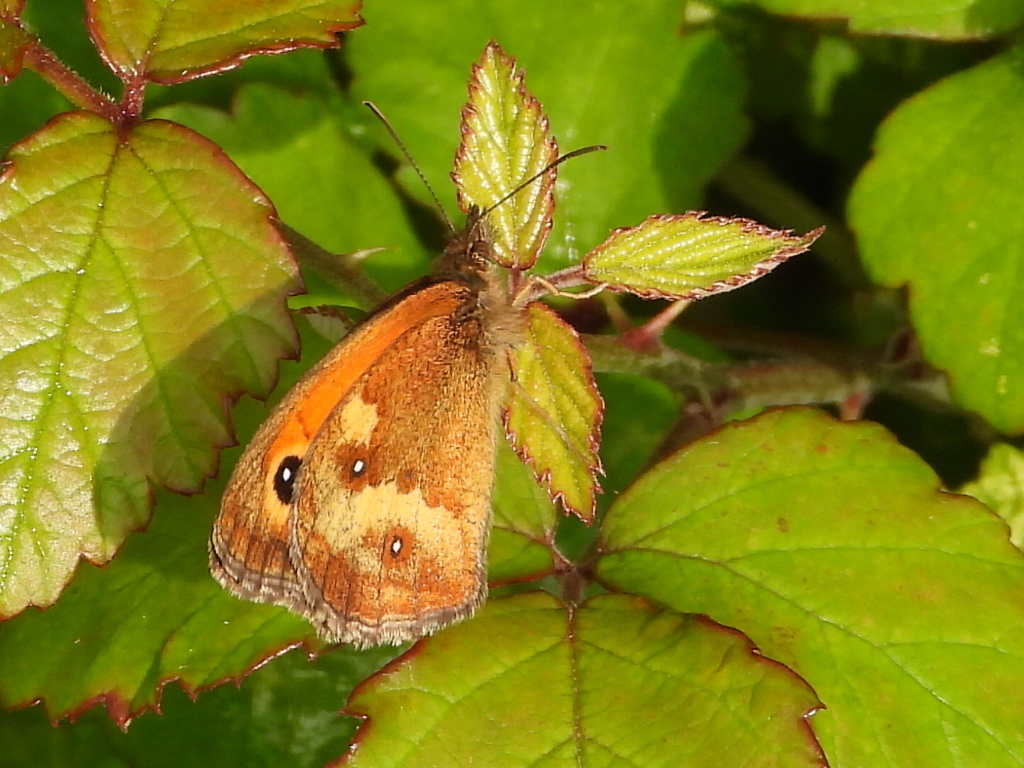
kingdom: Animalia
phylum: Arthropoda
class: Insecta
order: Lepidoptera
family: Nymphalidae
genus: Pyronia
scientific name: Pyronia tithonus
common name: Gatekeeper
